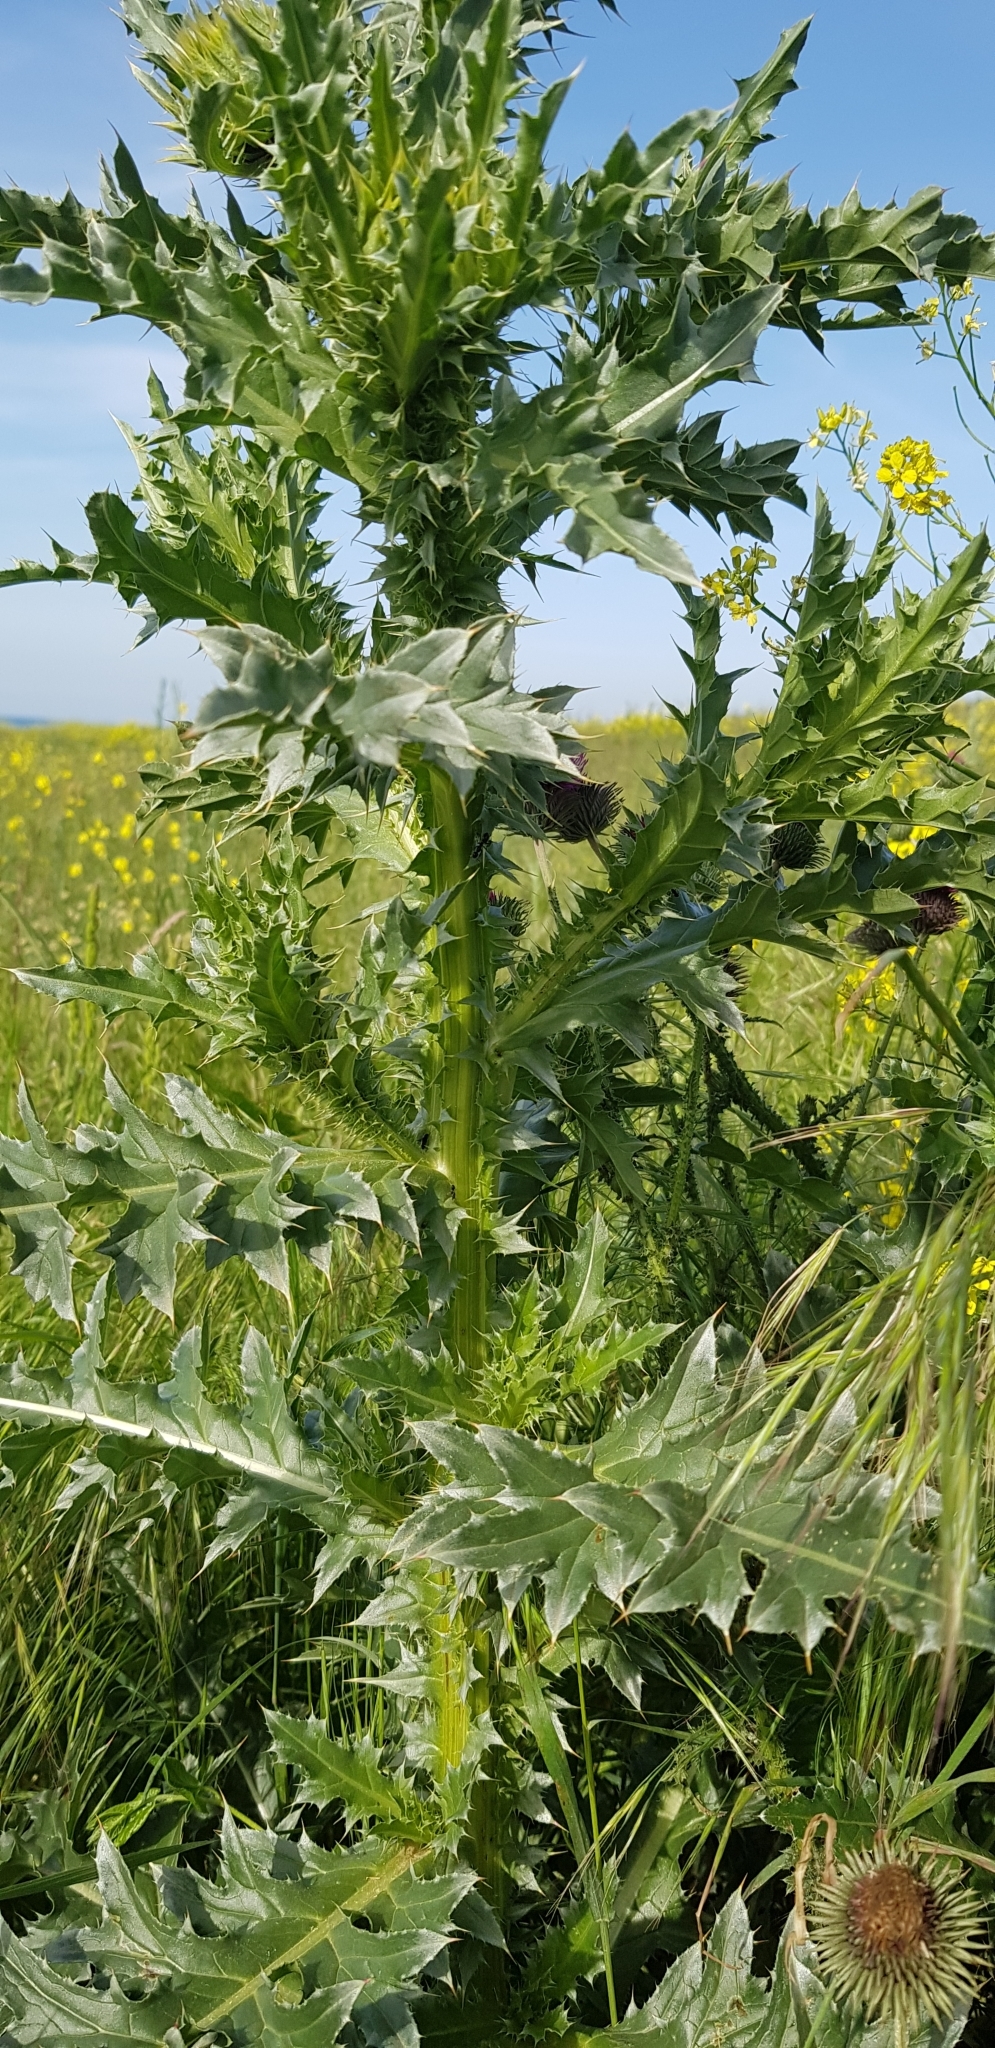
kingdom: Plantae
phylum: Tracheophyta
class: Magnoliopsida
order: Asterales
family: Asteraceae
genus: Carduus
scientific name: Carduus nutans
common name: Musk thistle
